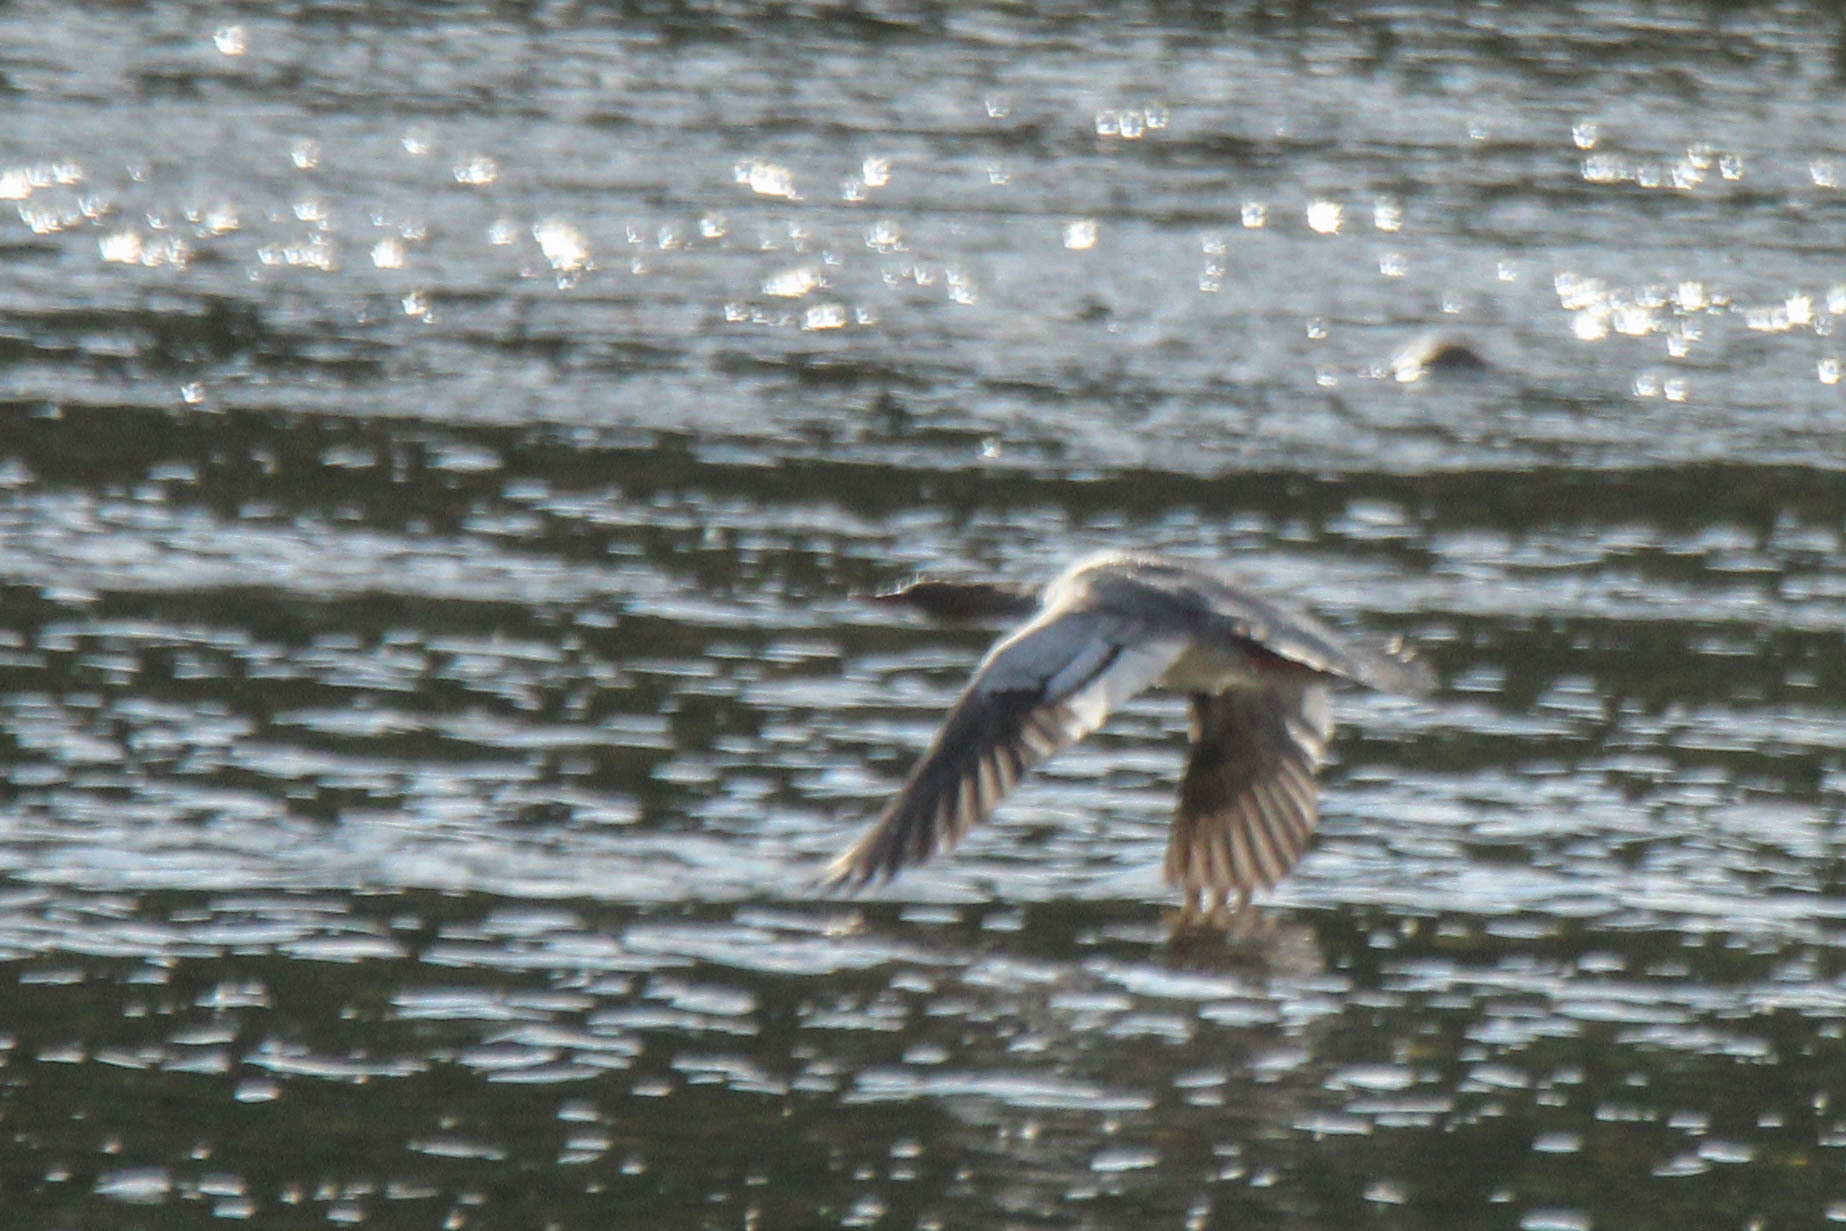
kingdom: Animalia
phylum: Chordata
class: Aves
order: Anseriformes
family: Anatidae
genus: Mergus
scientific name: Mergus squamatus
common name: Scaly-sided merganser
